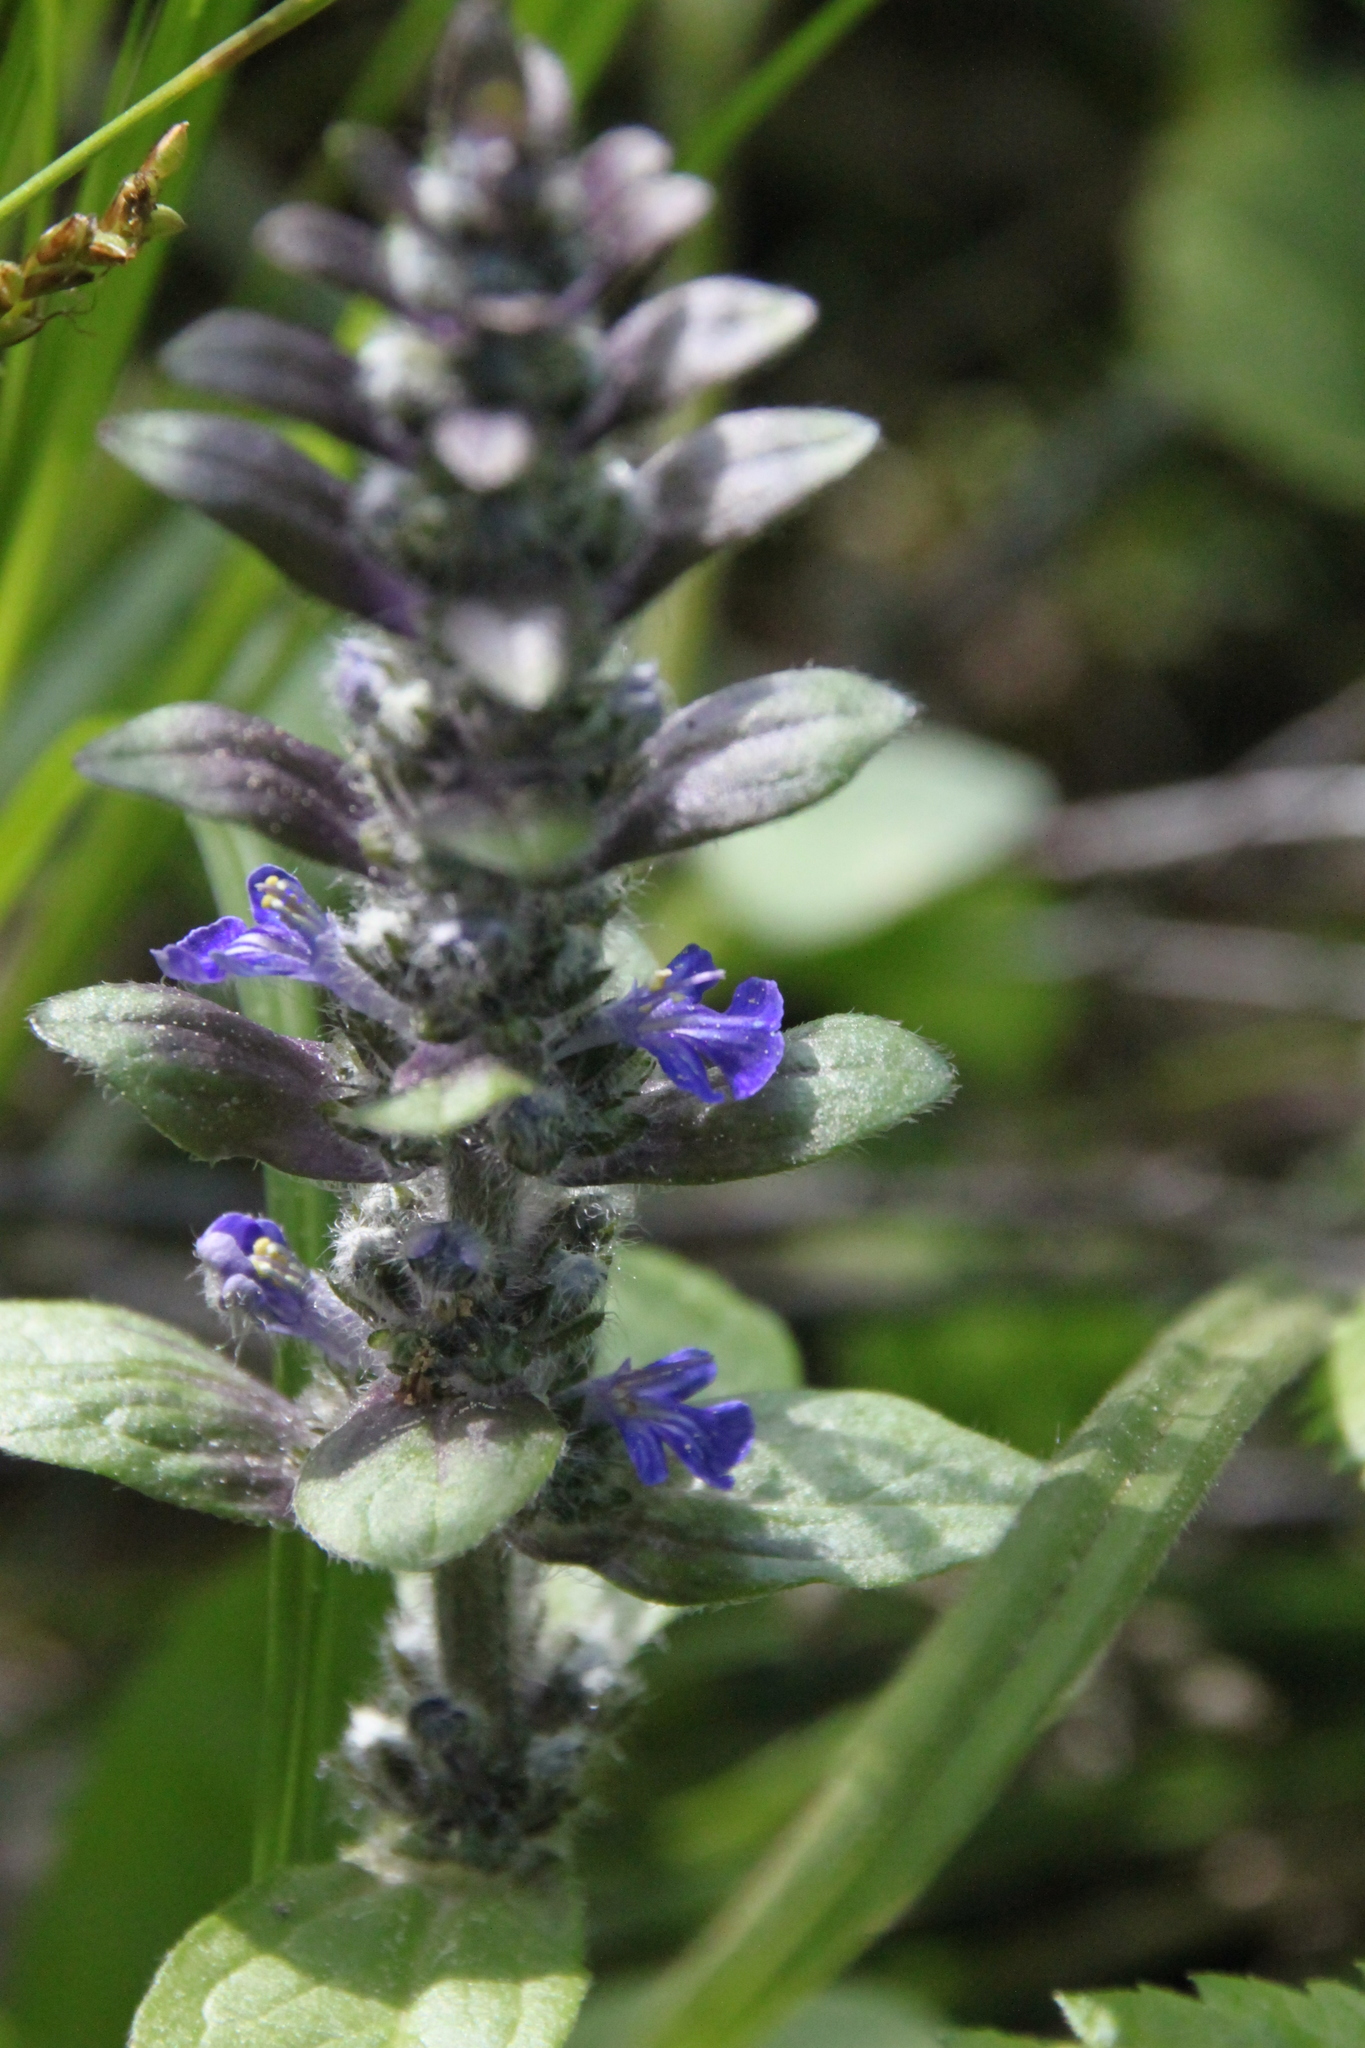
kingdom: Plantae
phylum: Tracheophyta
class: Magnoliopsida
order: Lamiales
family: Lamiaceae
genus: Ajuga
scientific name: Ajuga reptans
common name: Bugle
